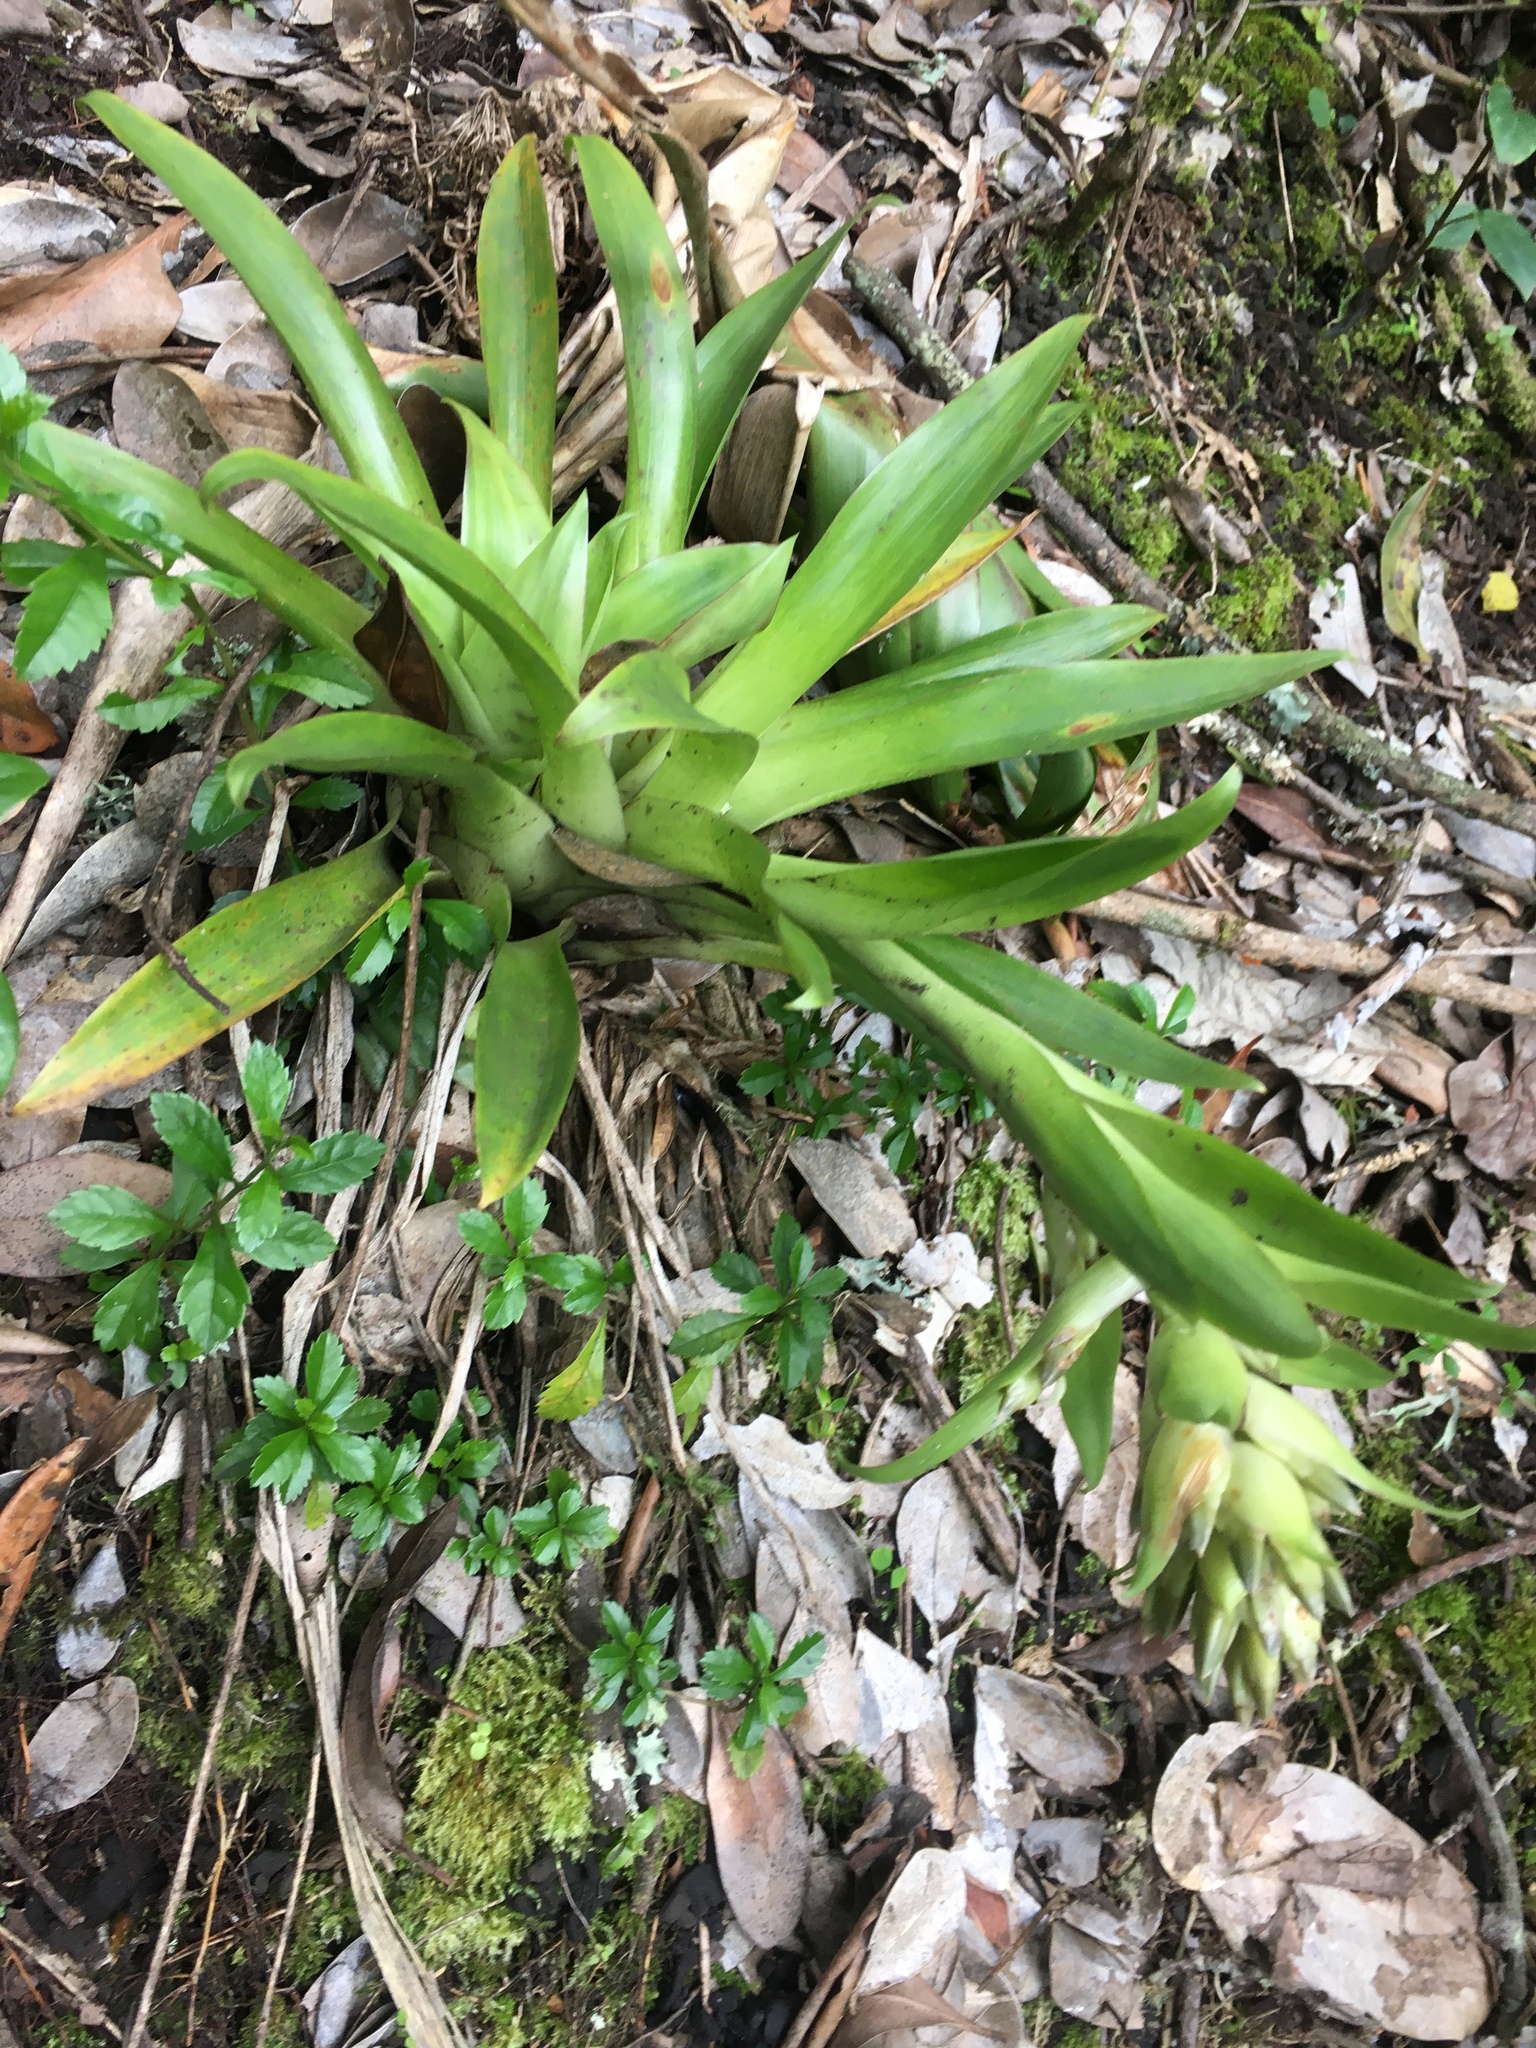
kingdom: Plantae
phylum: Tracheophyta
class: Liliopsida
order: Poales
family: Bromeliaceae
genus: Tillandsia
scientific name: Tillandsia biflora
